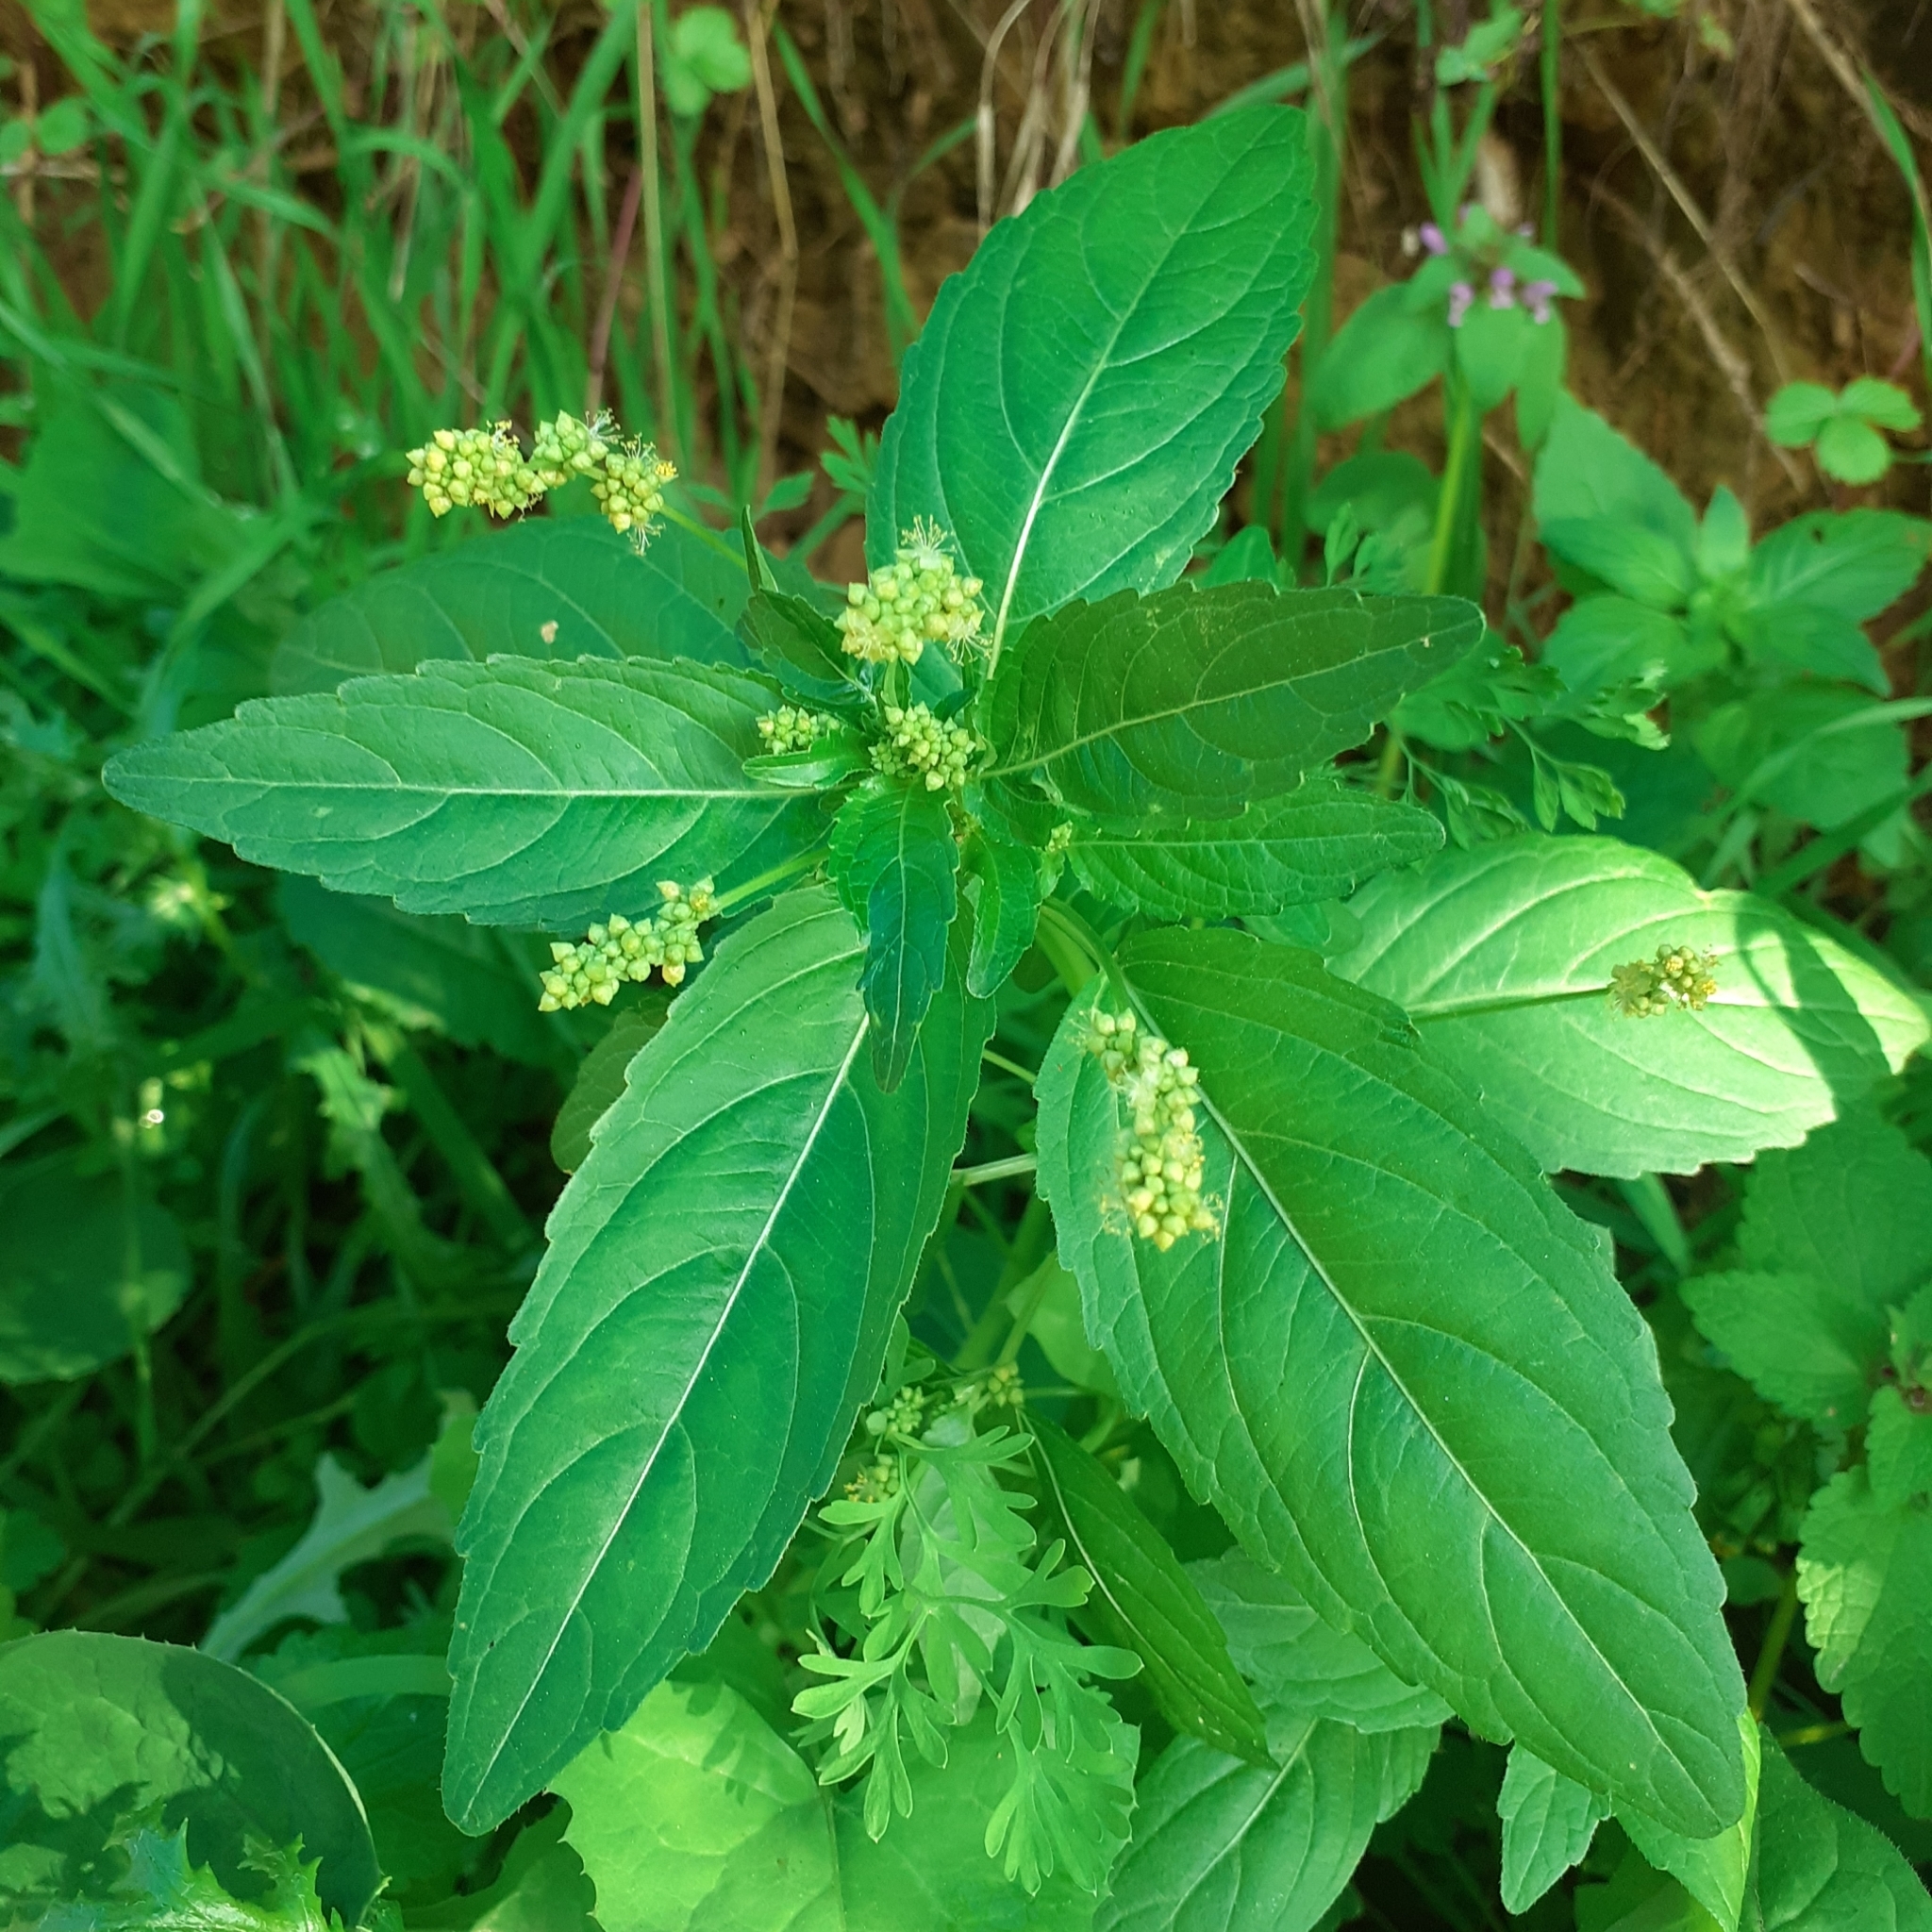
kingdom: Plantae
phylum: Tracheophyta
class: Magnoliopsida
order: Malpighiales
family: Euphorbiaceae
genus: Mercurialis
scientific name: Mercurialis annua
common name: Annual mercury
